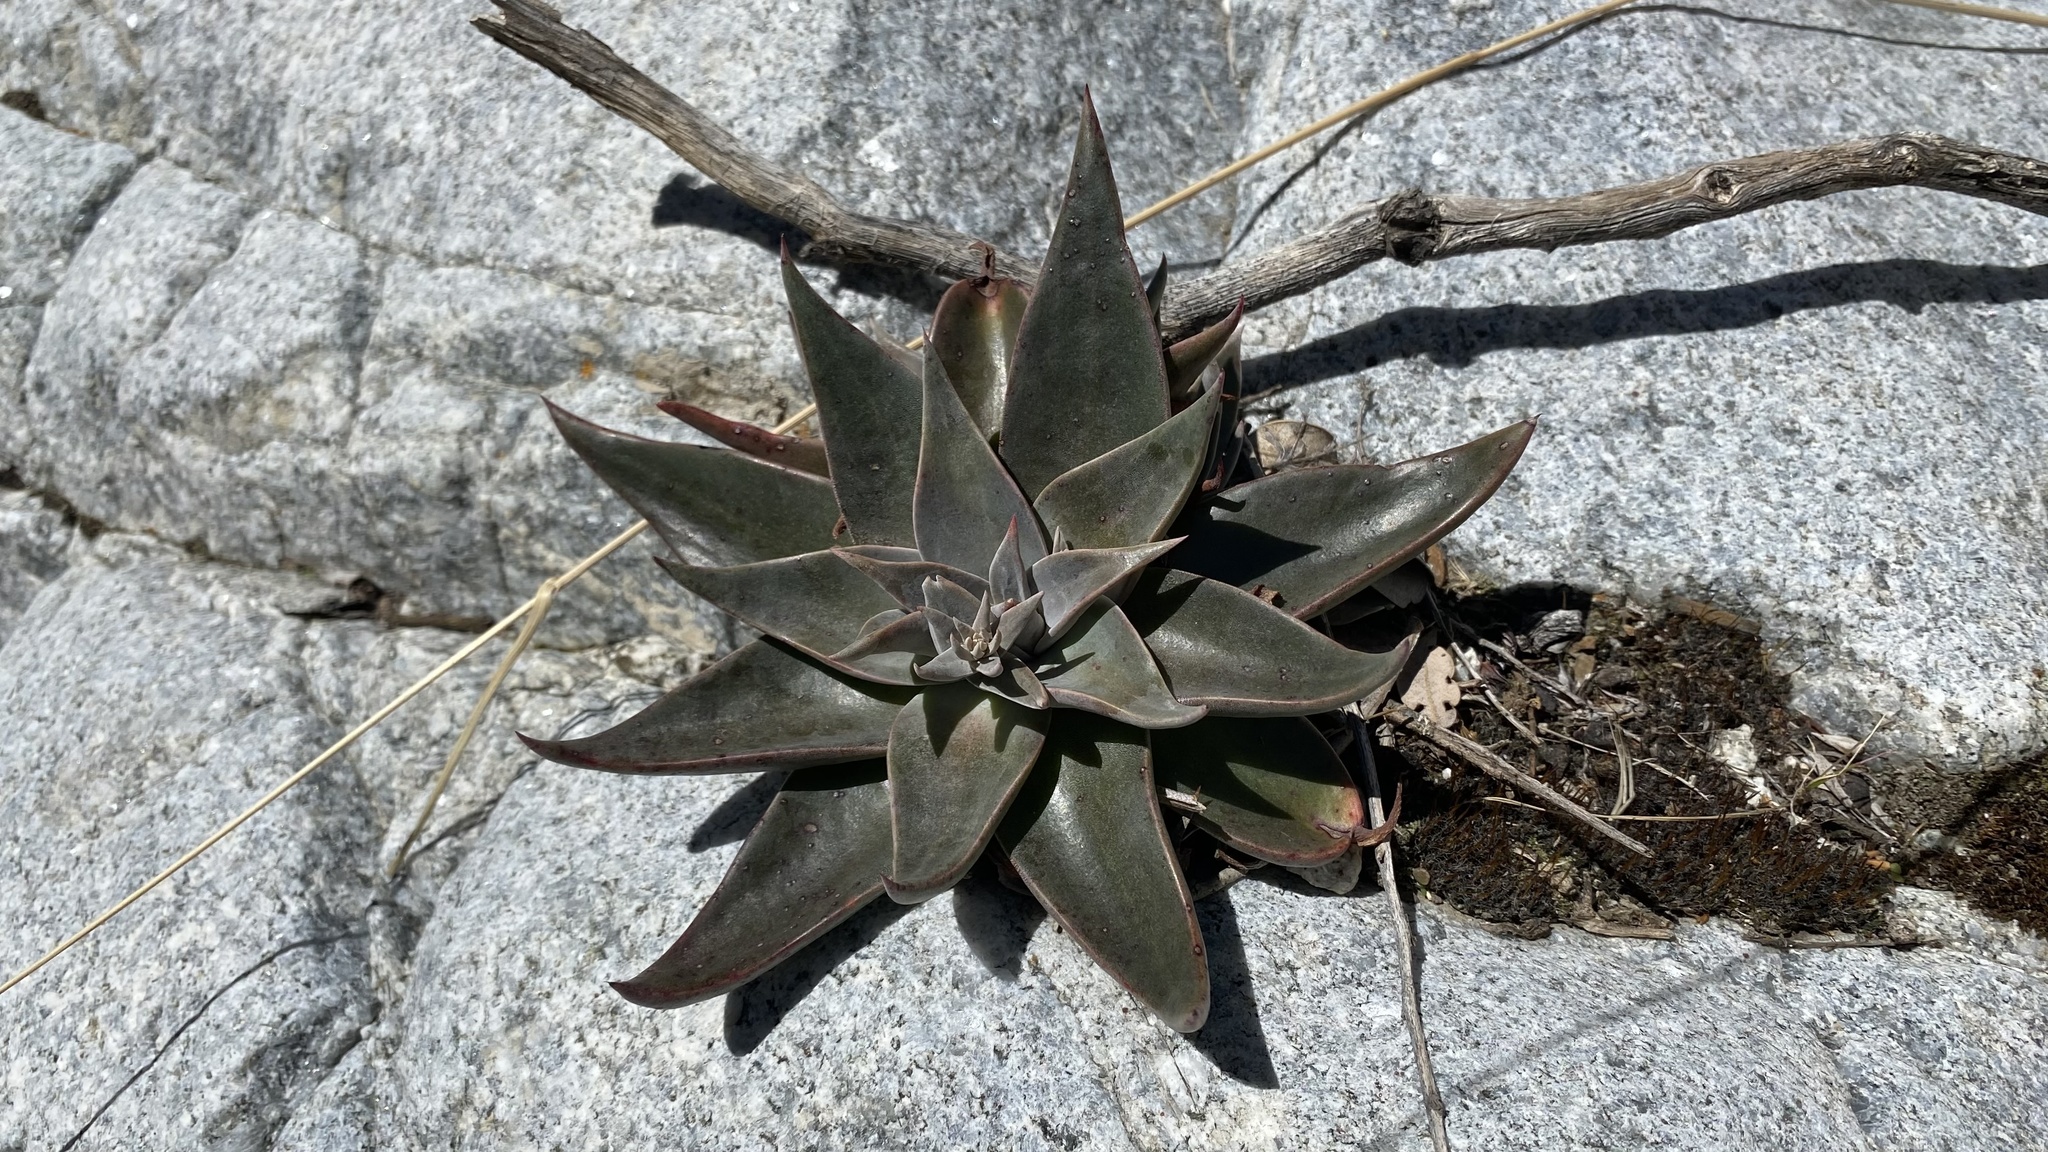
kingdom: Plantae
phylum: Tracheophyta
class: Magnoliopsida
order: Saxifragales
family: Crassulaceae
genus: Dudleya
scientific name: Dudleya lanceolata
